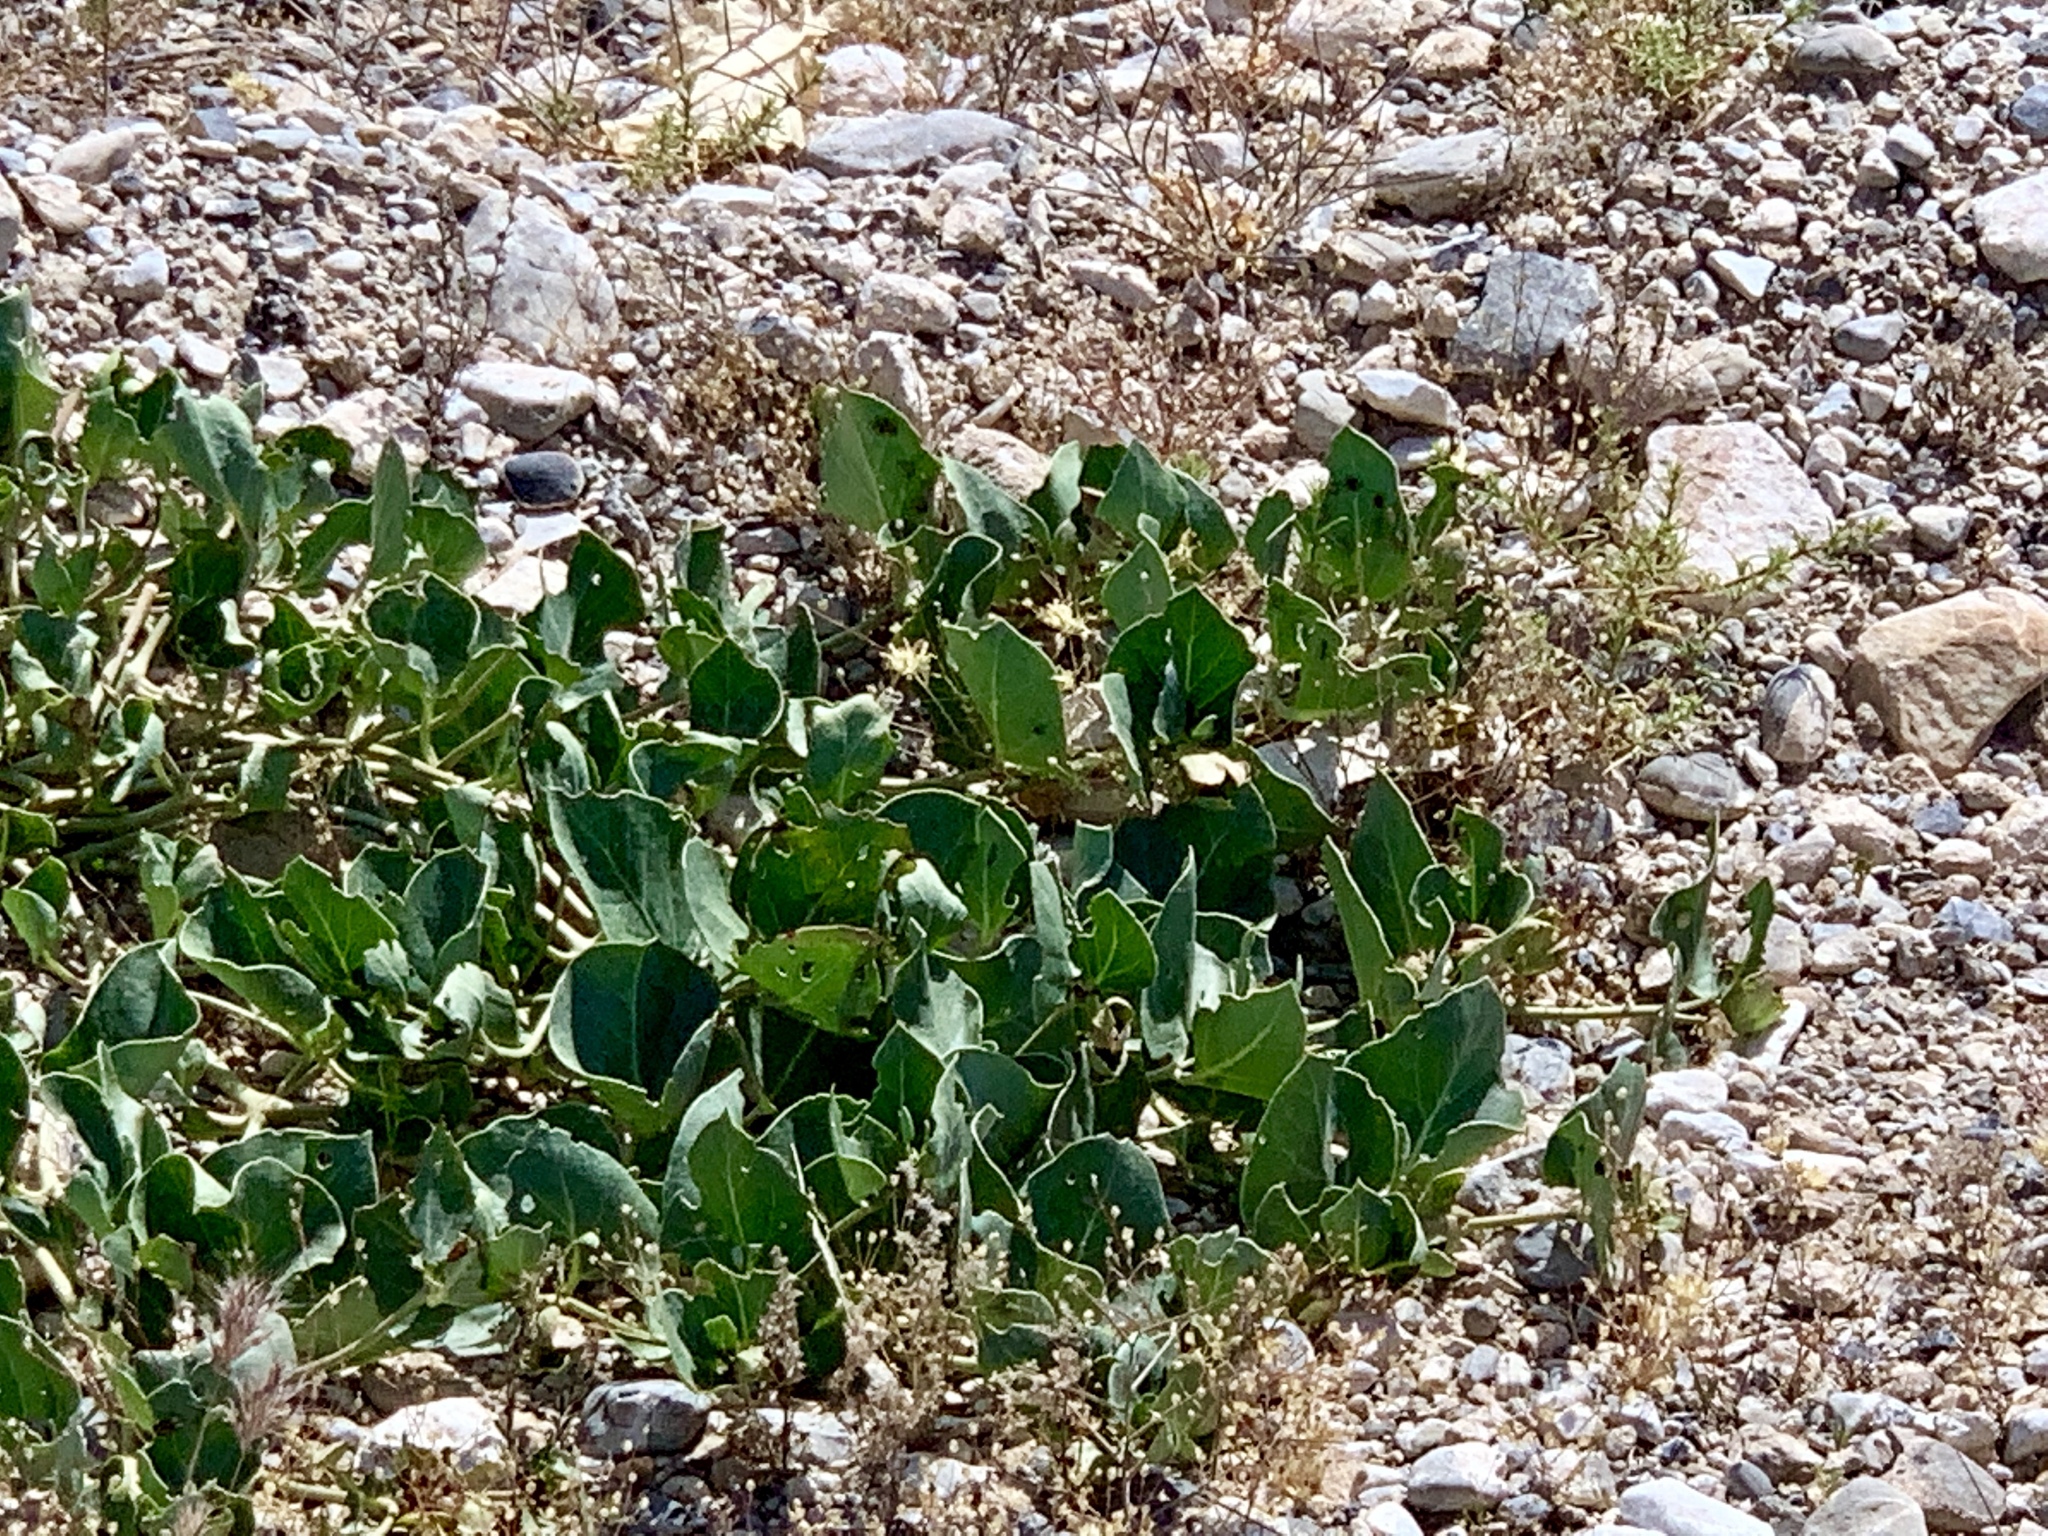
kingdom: Plantae
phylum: Tracheophyta
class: Magnoliopsida
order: Caryophyllales
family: Nyctaginaceae
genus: Mirabilis
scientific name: Mirabilis multiflora
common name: Froebel's four-o'clock
